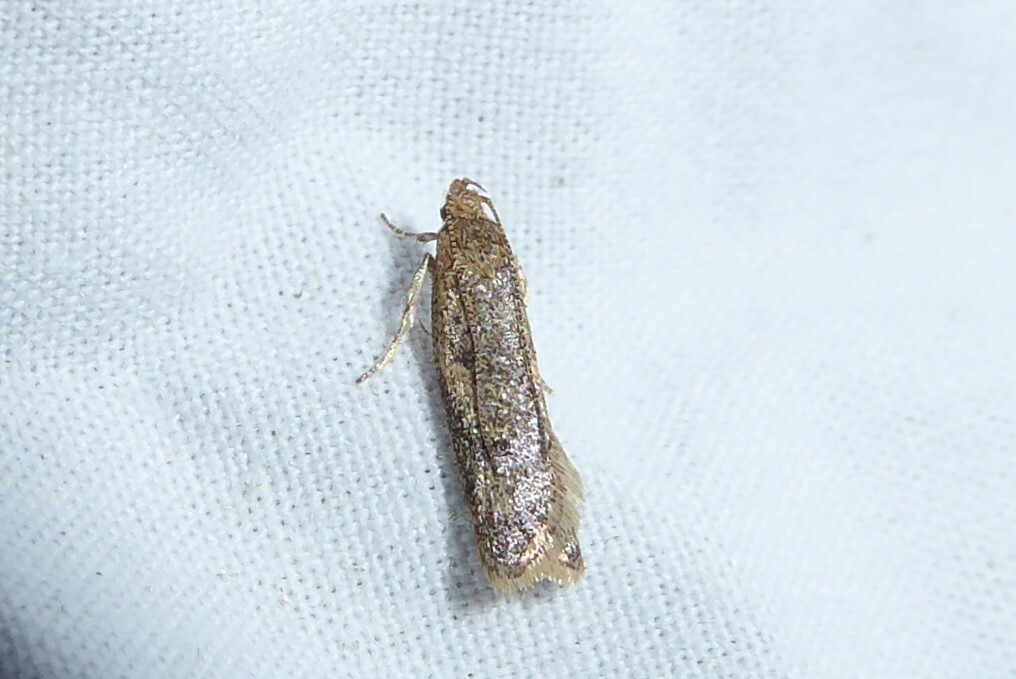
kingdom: Animalia
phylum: Arthropoda
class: Insecta
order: Lepidoptera
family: Oecophoridae
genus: Gymnobathra
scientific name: Gymnobathra tholodella
